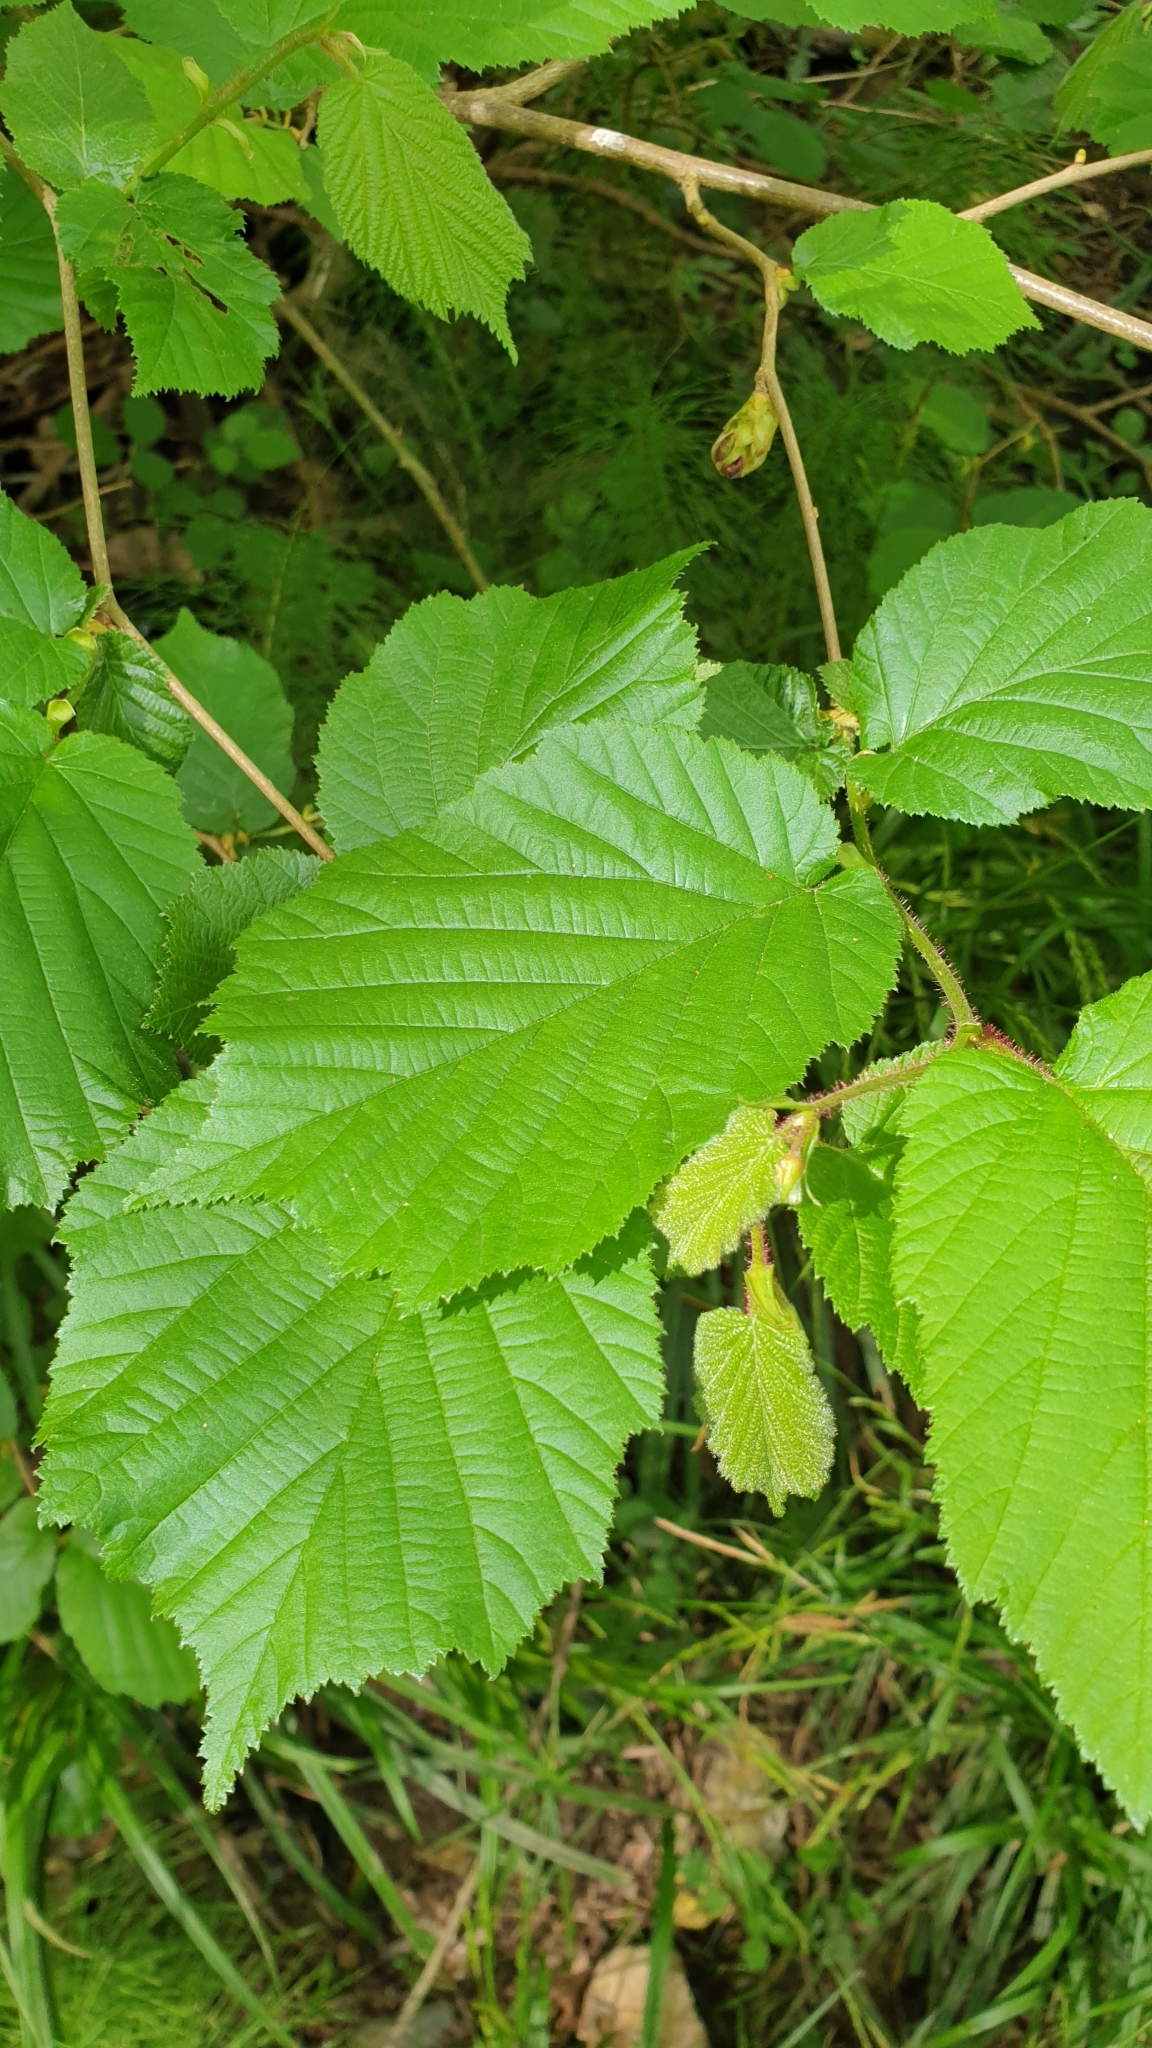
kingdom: Plantae
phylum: Tracheophyta
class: Magnoliopsida
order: Fagales
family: Betulaceae
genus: Corylus
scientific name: Corylus avellana
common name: European hazel
